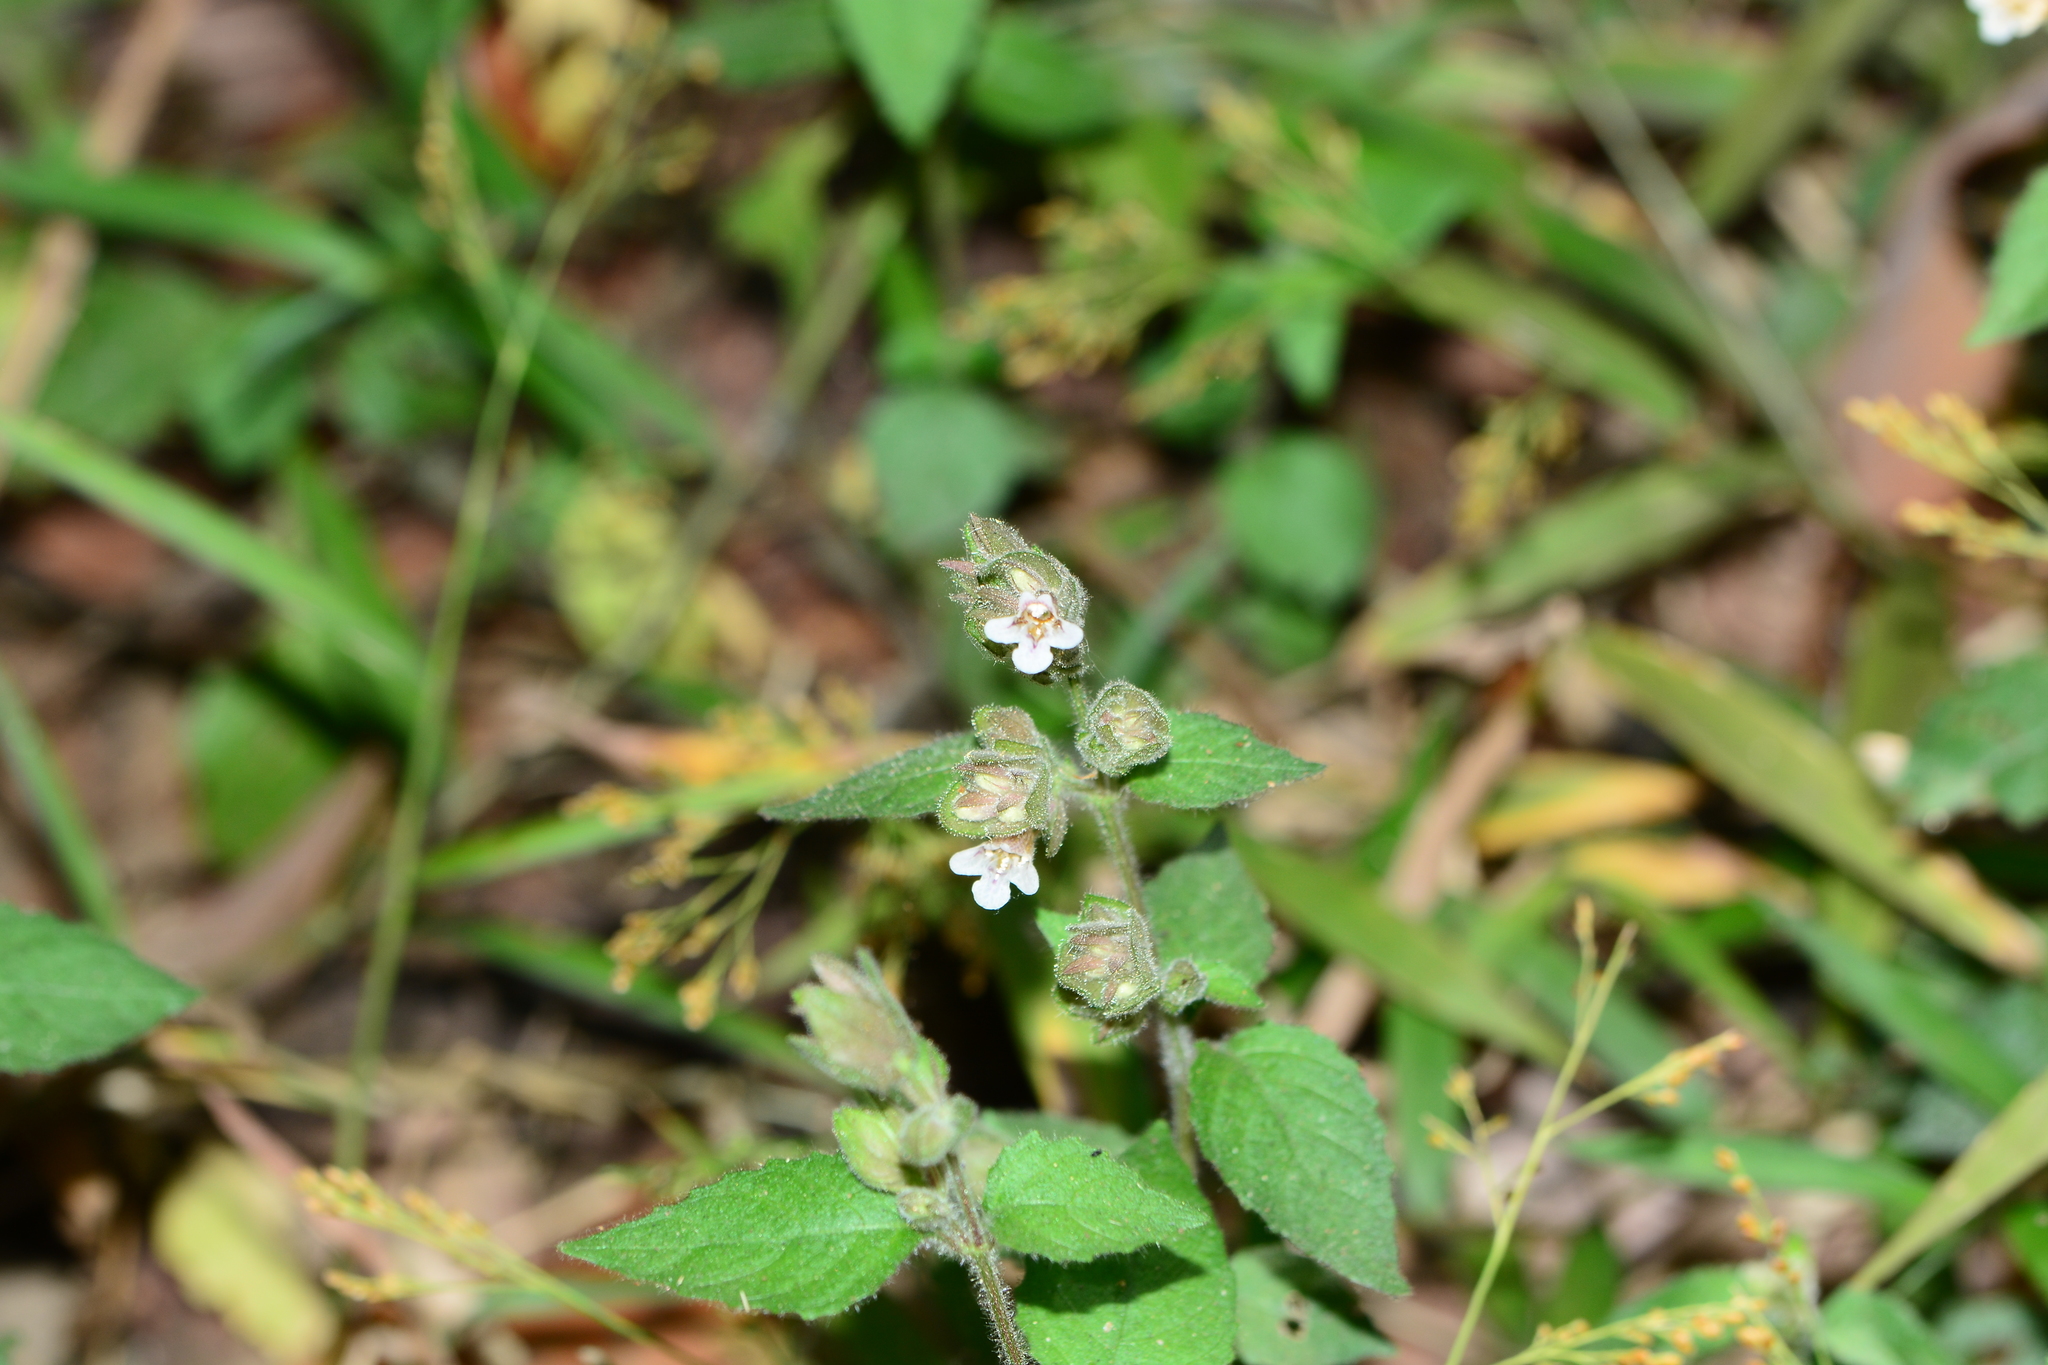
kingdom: Plantae
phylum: Tracheophyta
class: Magnoliopsida
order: Lamiales
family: Acanthaceae
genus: Lepidagathis
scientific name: Lepidagathis fasciculata
